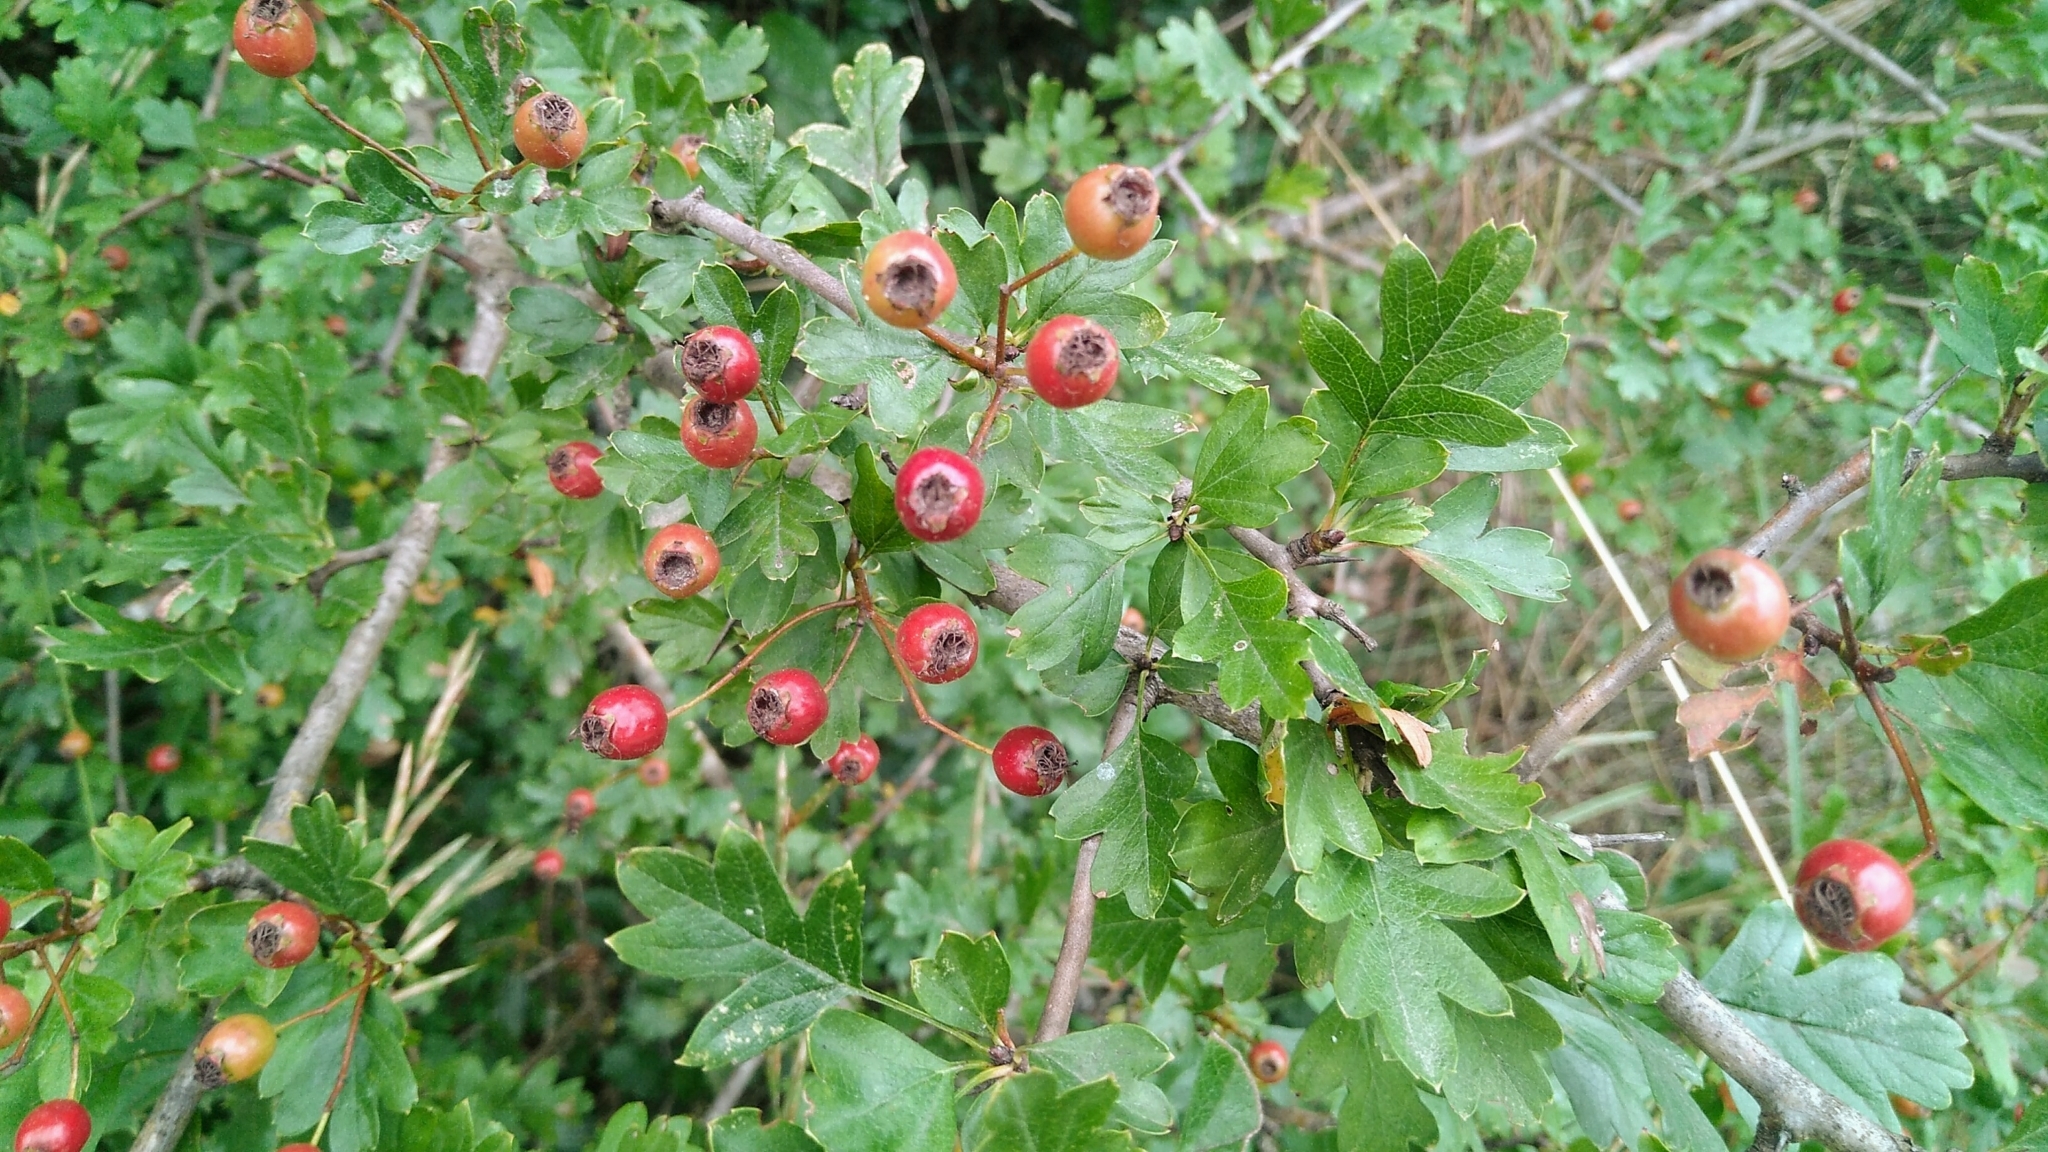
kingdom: Plantae
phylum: Tracheophyta
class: Magnoliopsida
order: Rosales
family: Rosaceae
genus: Crataegus
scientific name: Crataegus monogyna
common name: Hawthorn
